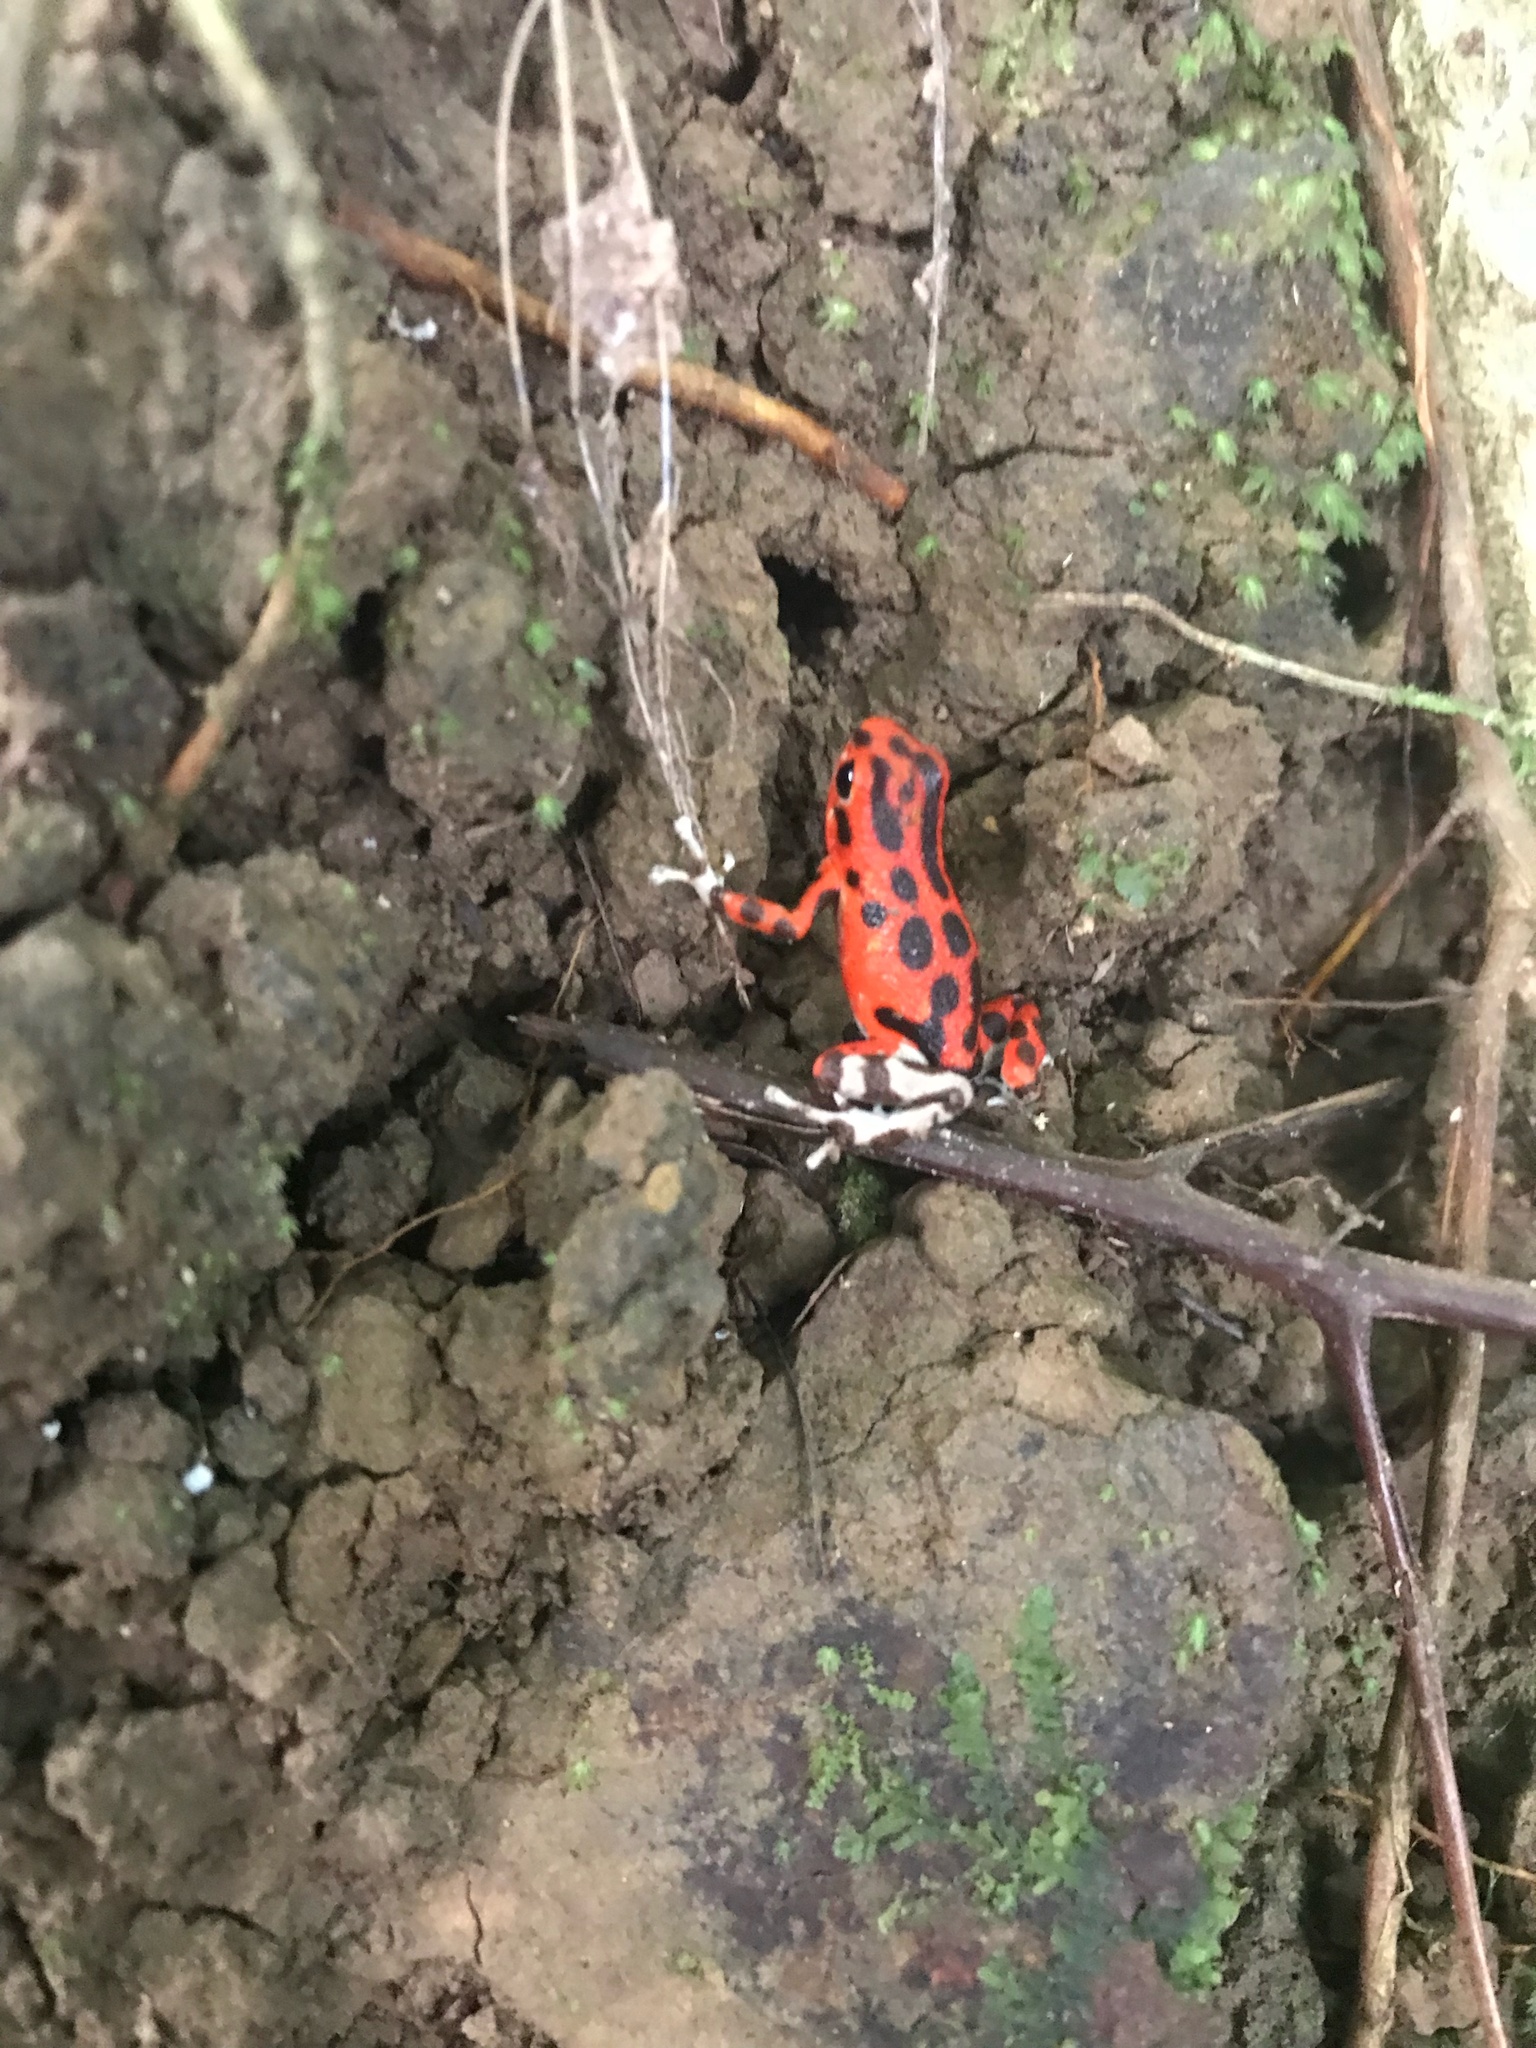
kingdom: Animalia
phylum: Chordata
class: Amphibia
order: Anura
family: Dendrobatidae
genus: Oophaga
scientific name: Oophaga pumilio
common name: Flaming poison frog
